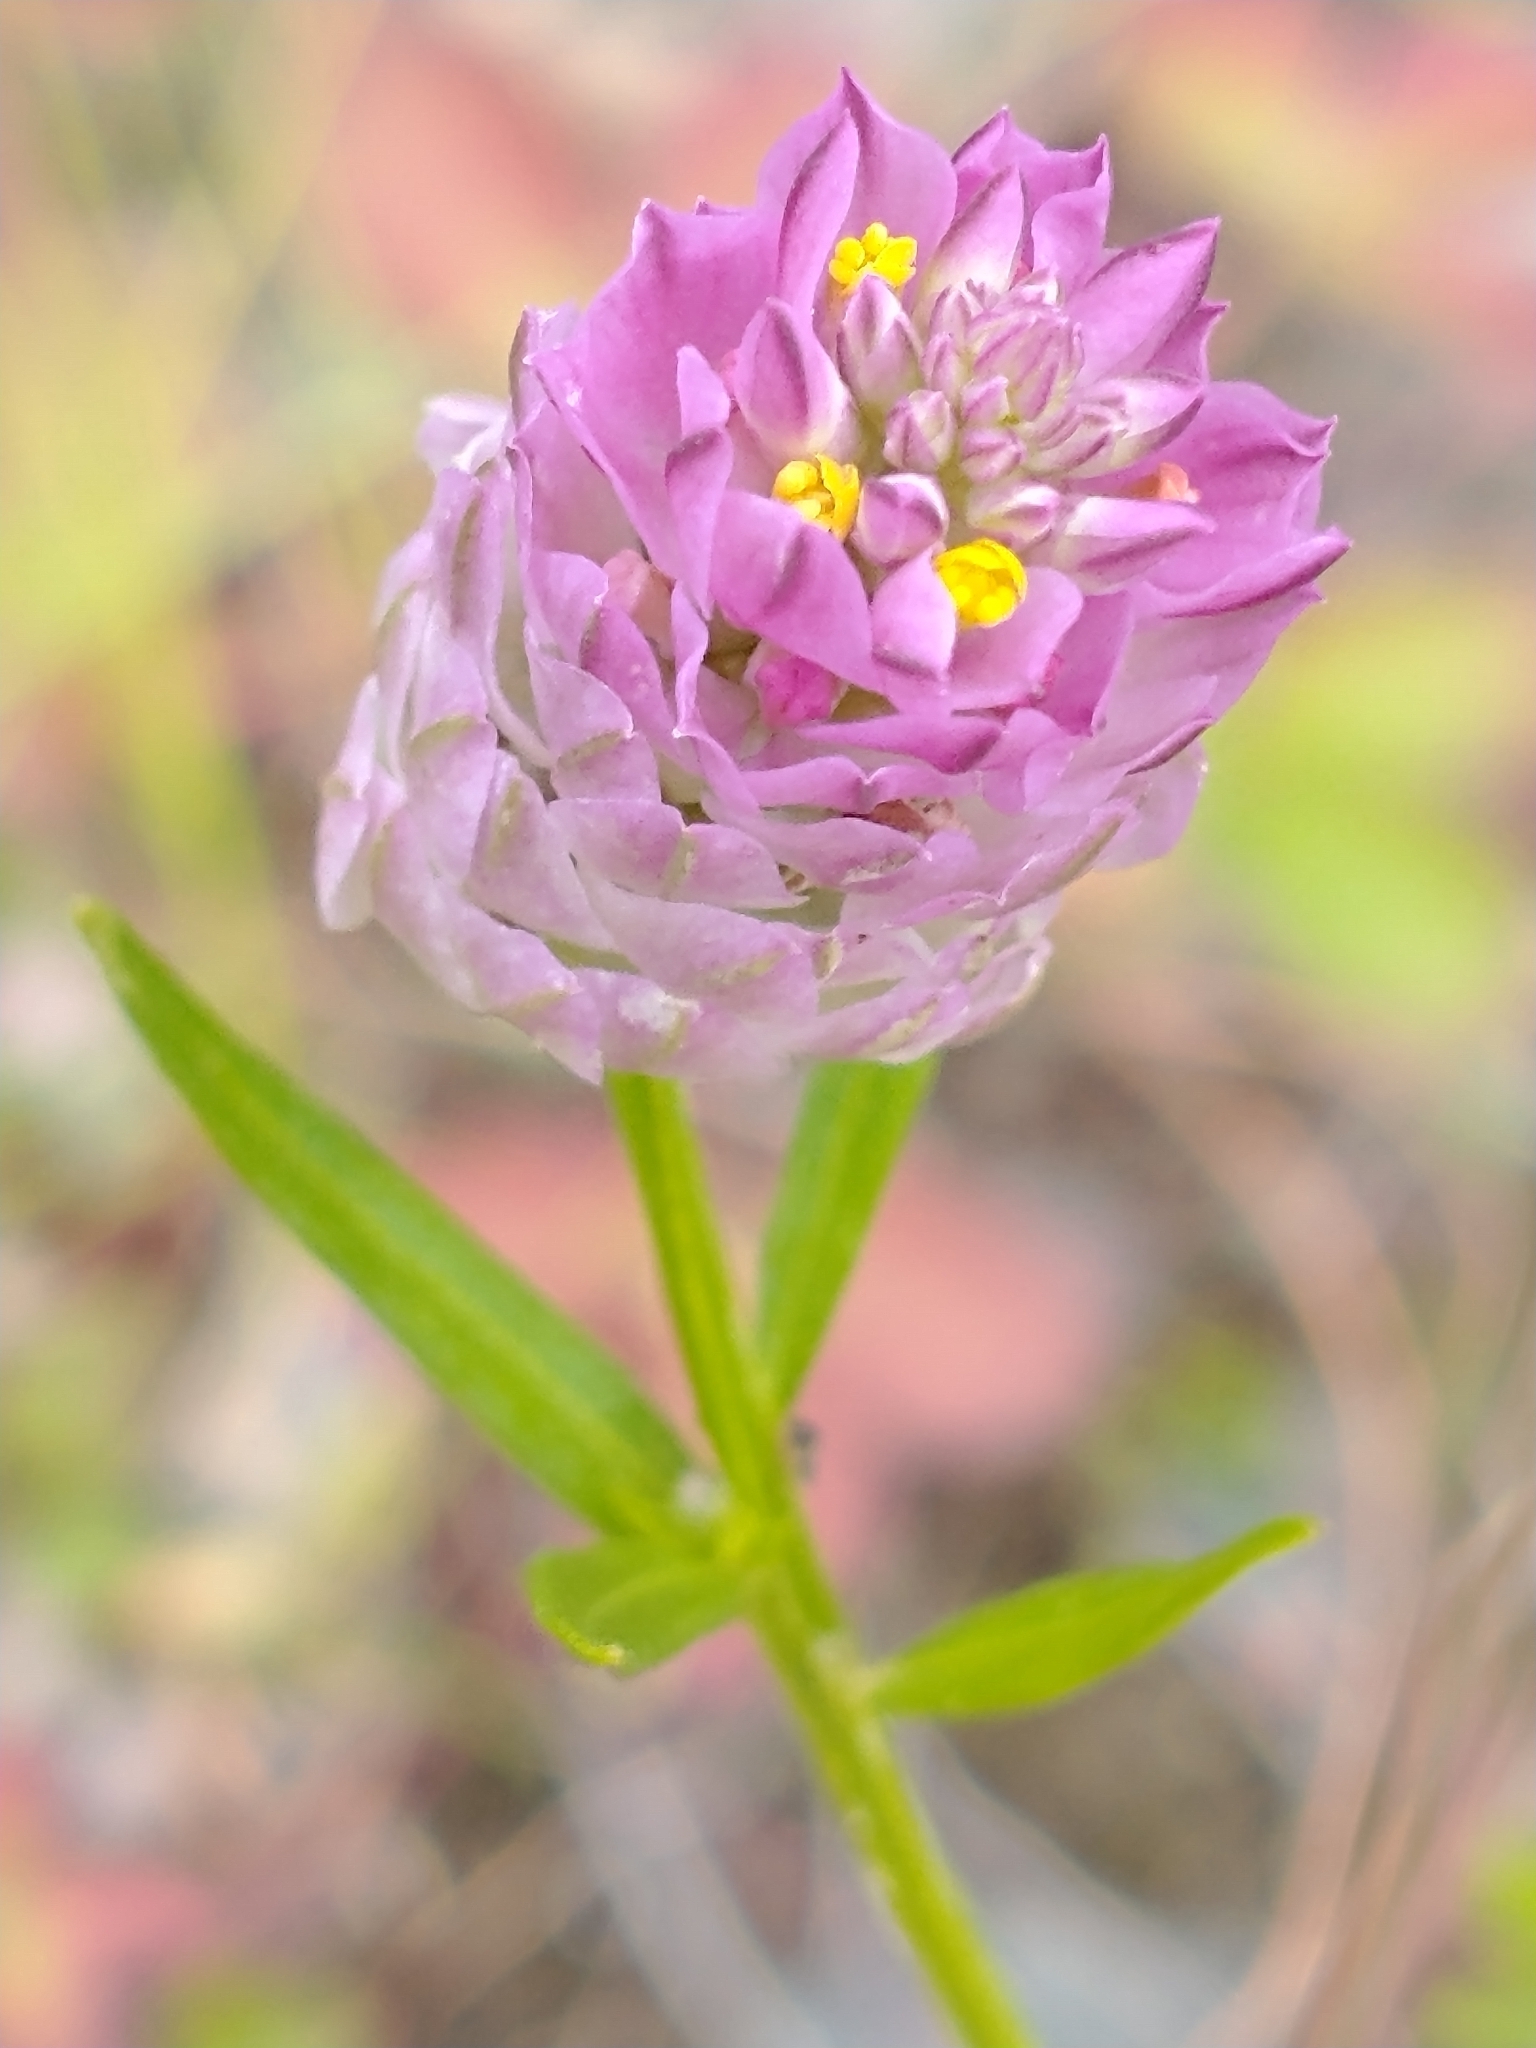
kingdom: Plantae
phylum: Tracheophyta
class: Magnoliopsida
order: Fabales
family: Polygalaceae
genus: Polygala
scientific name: Polygala sanguinea
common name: Blood milkwort
